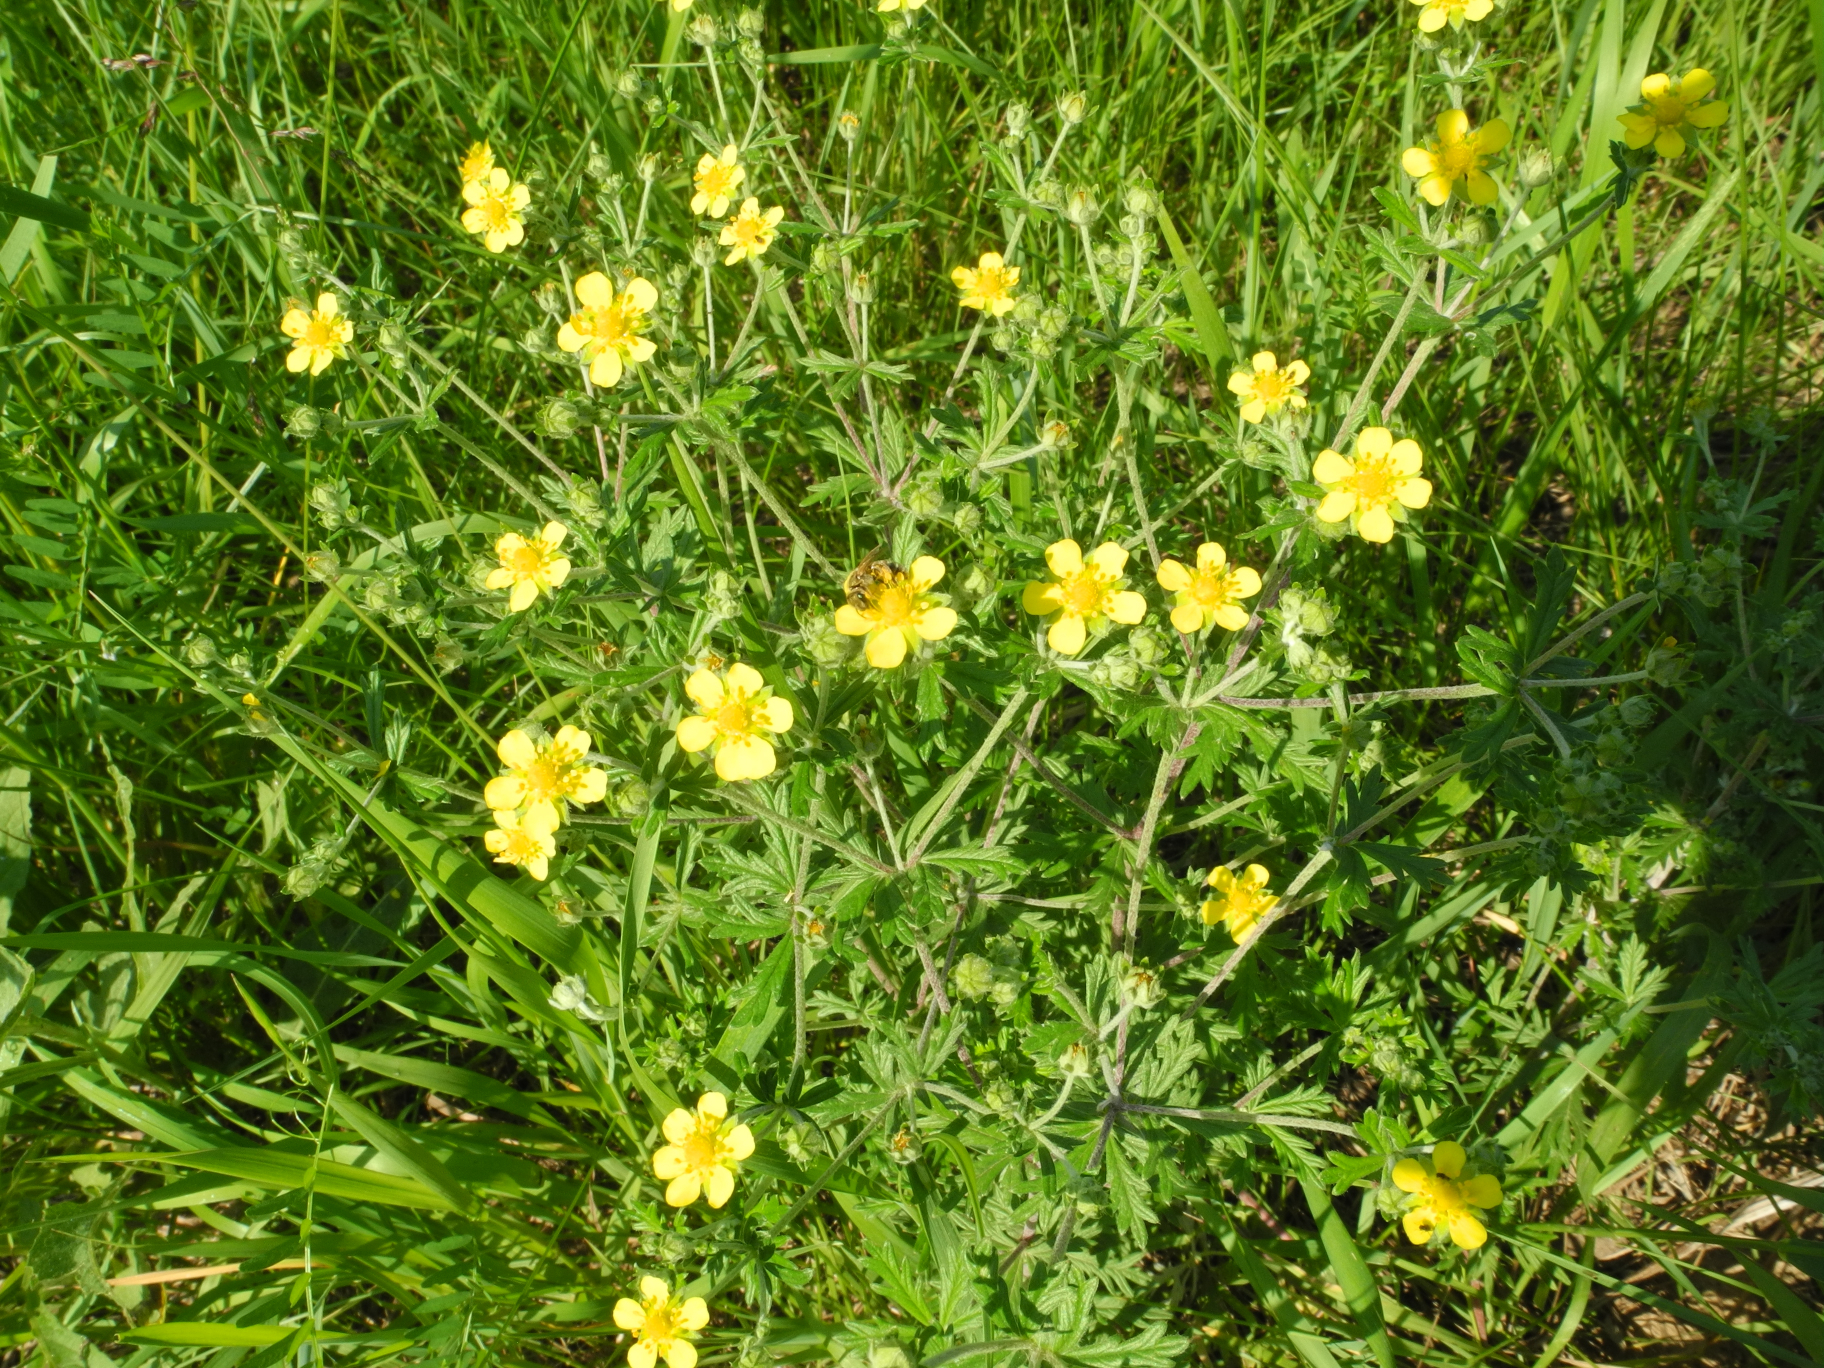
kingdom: Plantae
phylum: Tracheophyta
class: Magnoliopsida
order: Rosales
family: Rosaceae
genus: Potentilla
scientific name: Potentilla argentea
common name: Hoary cinquefoil
